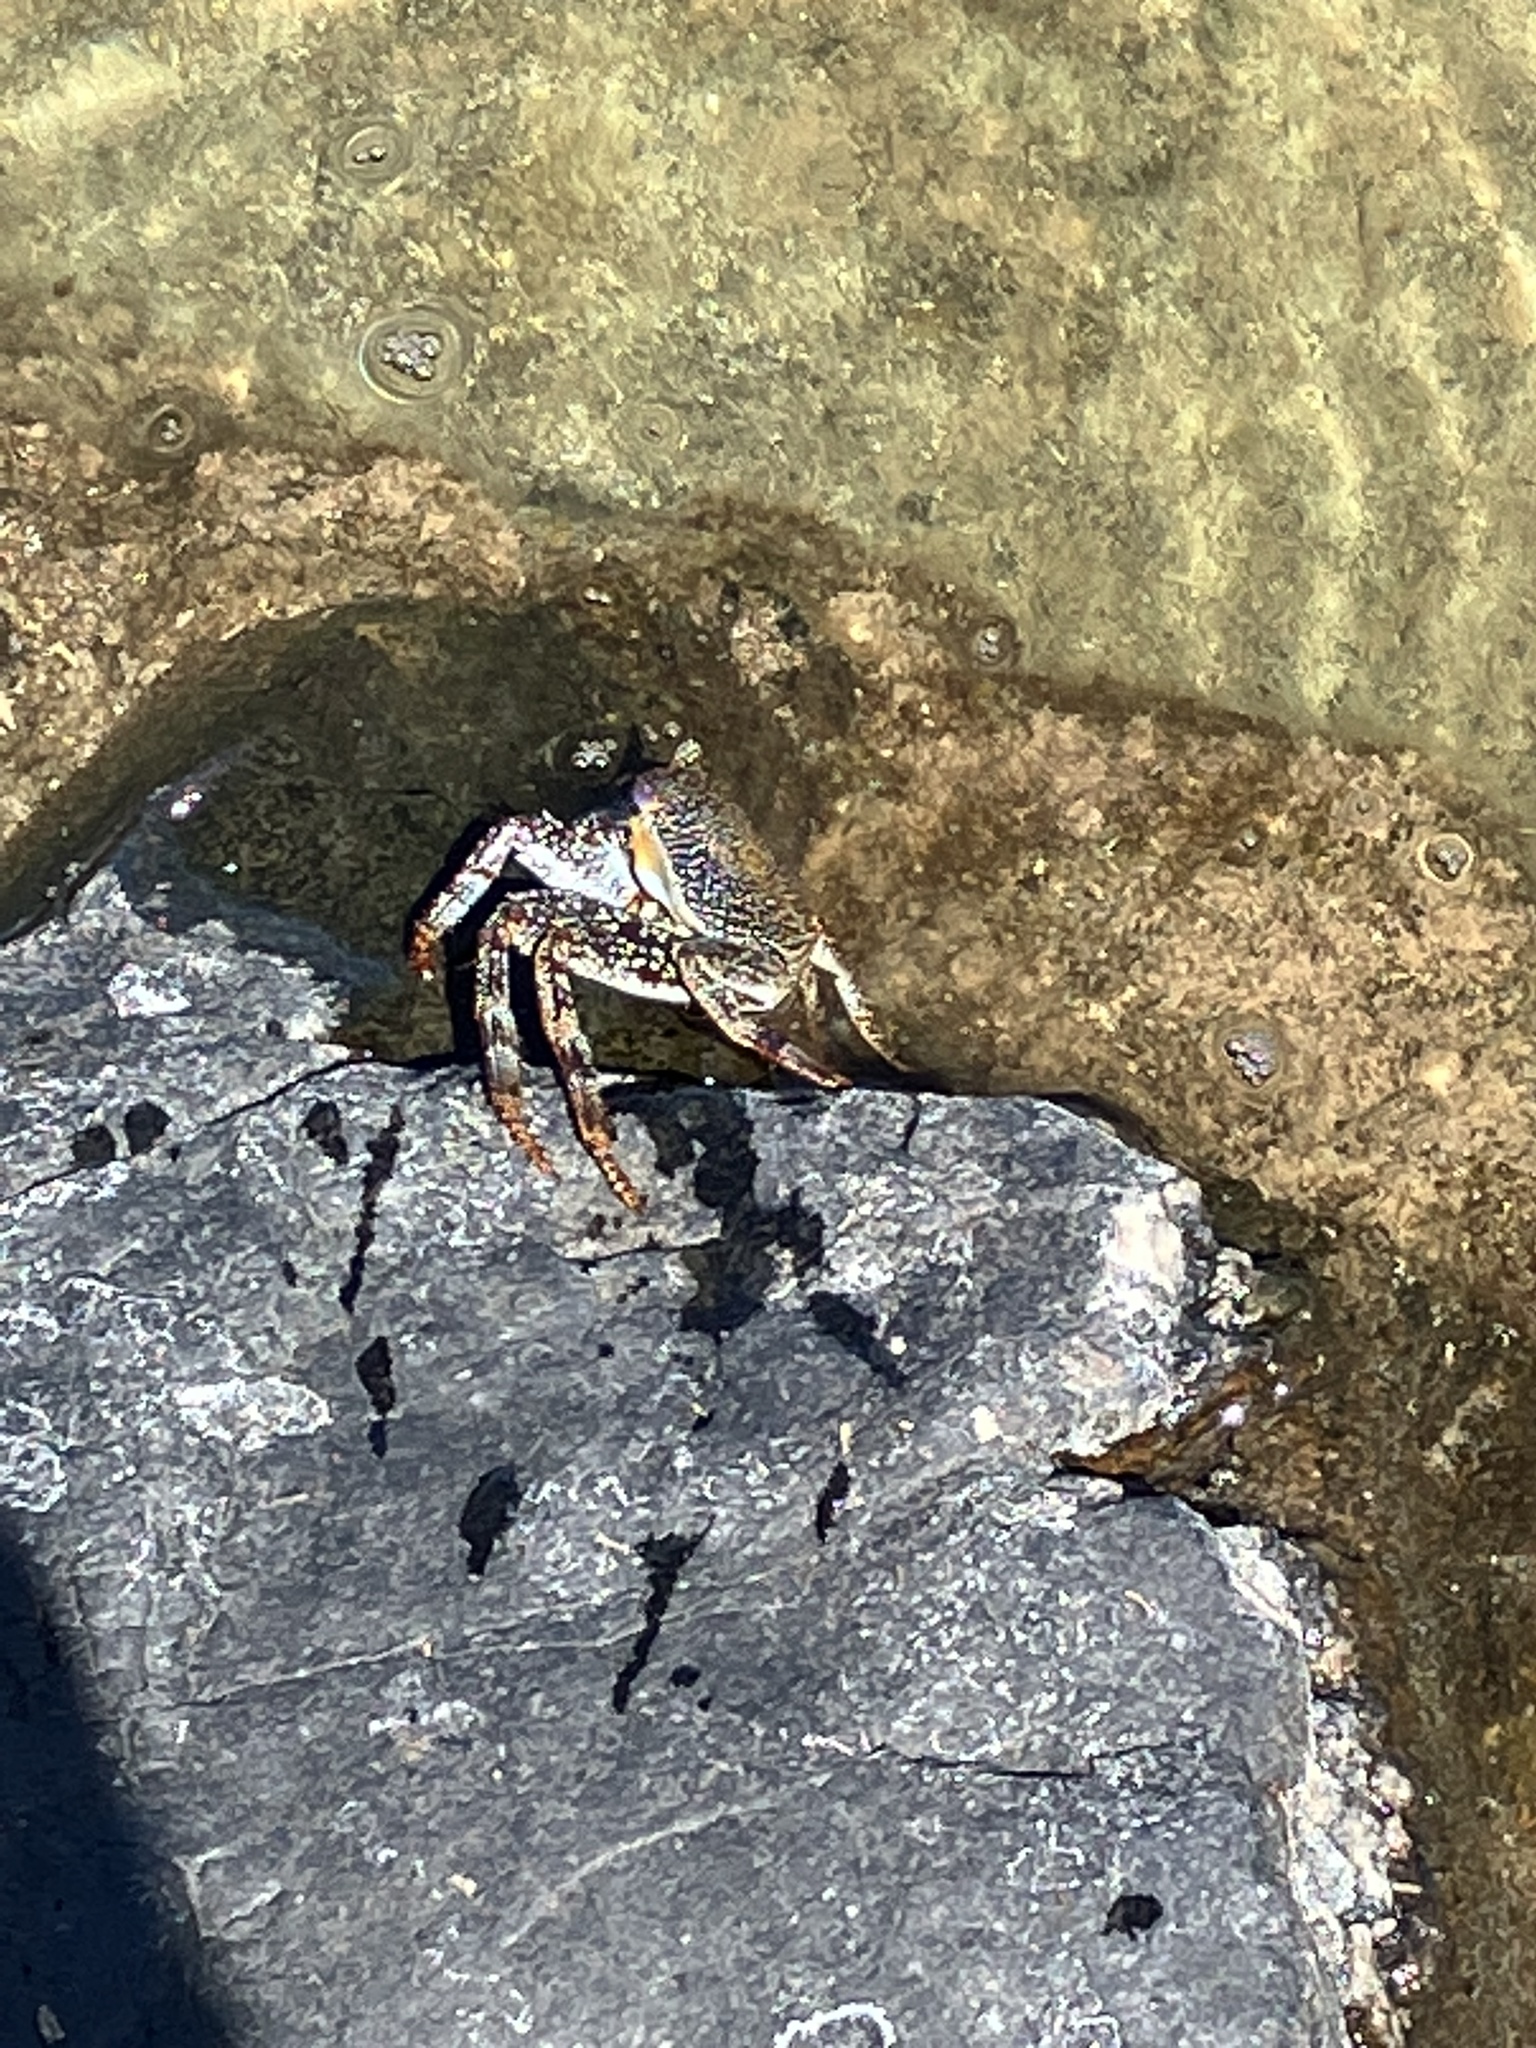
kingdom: Animalia
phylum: Arthropoda
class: Malacostraca
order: Decapoda
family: Grapsidae
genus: Grapsus
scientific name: Grapsus adscensionis
